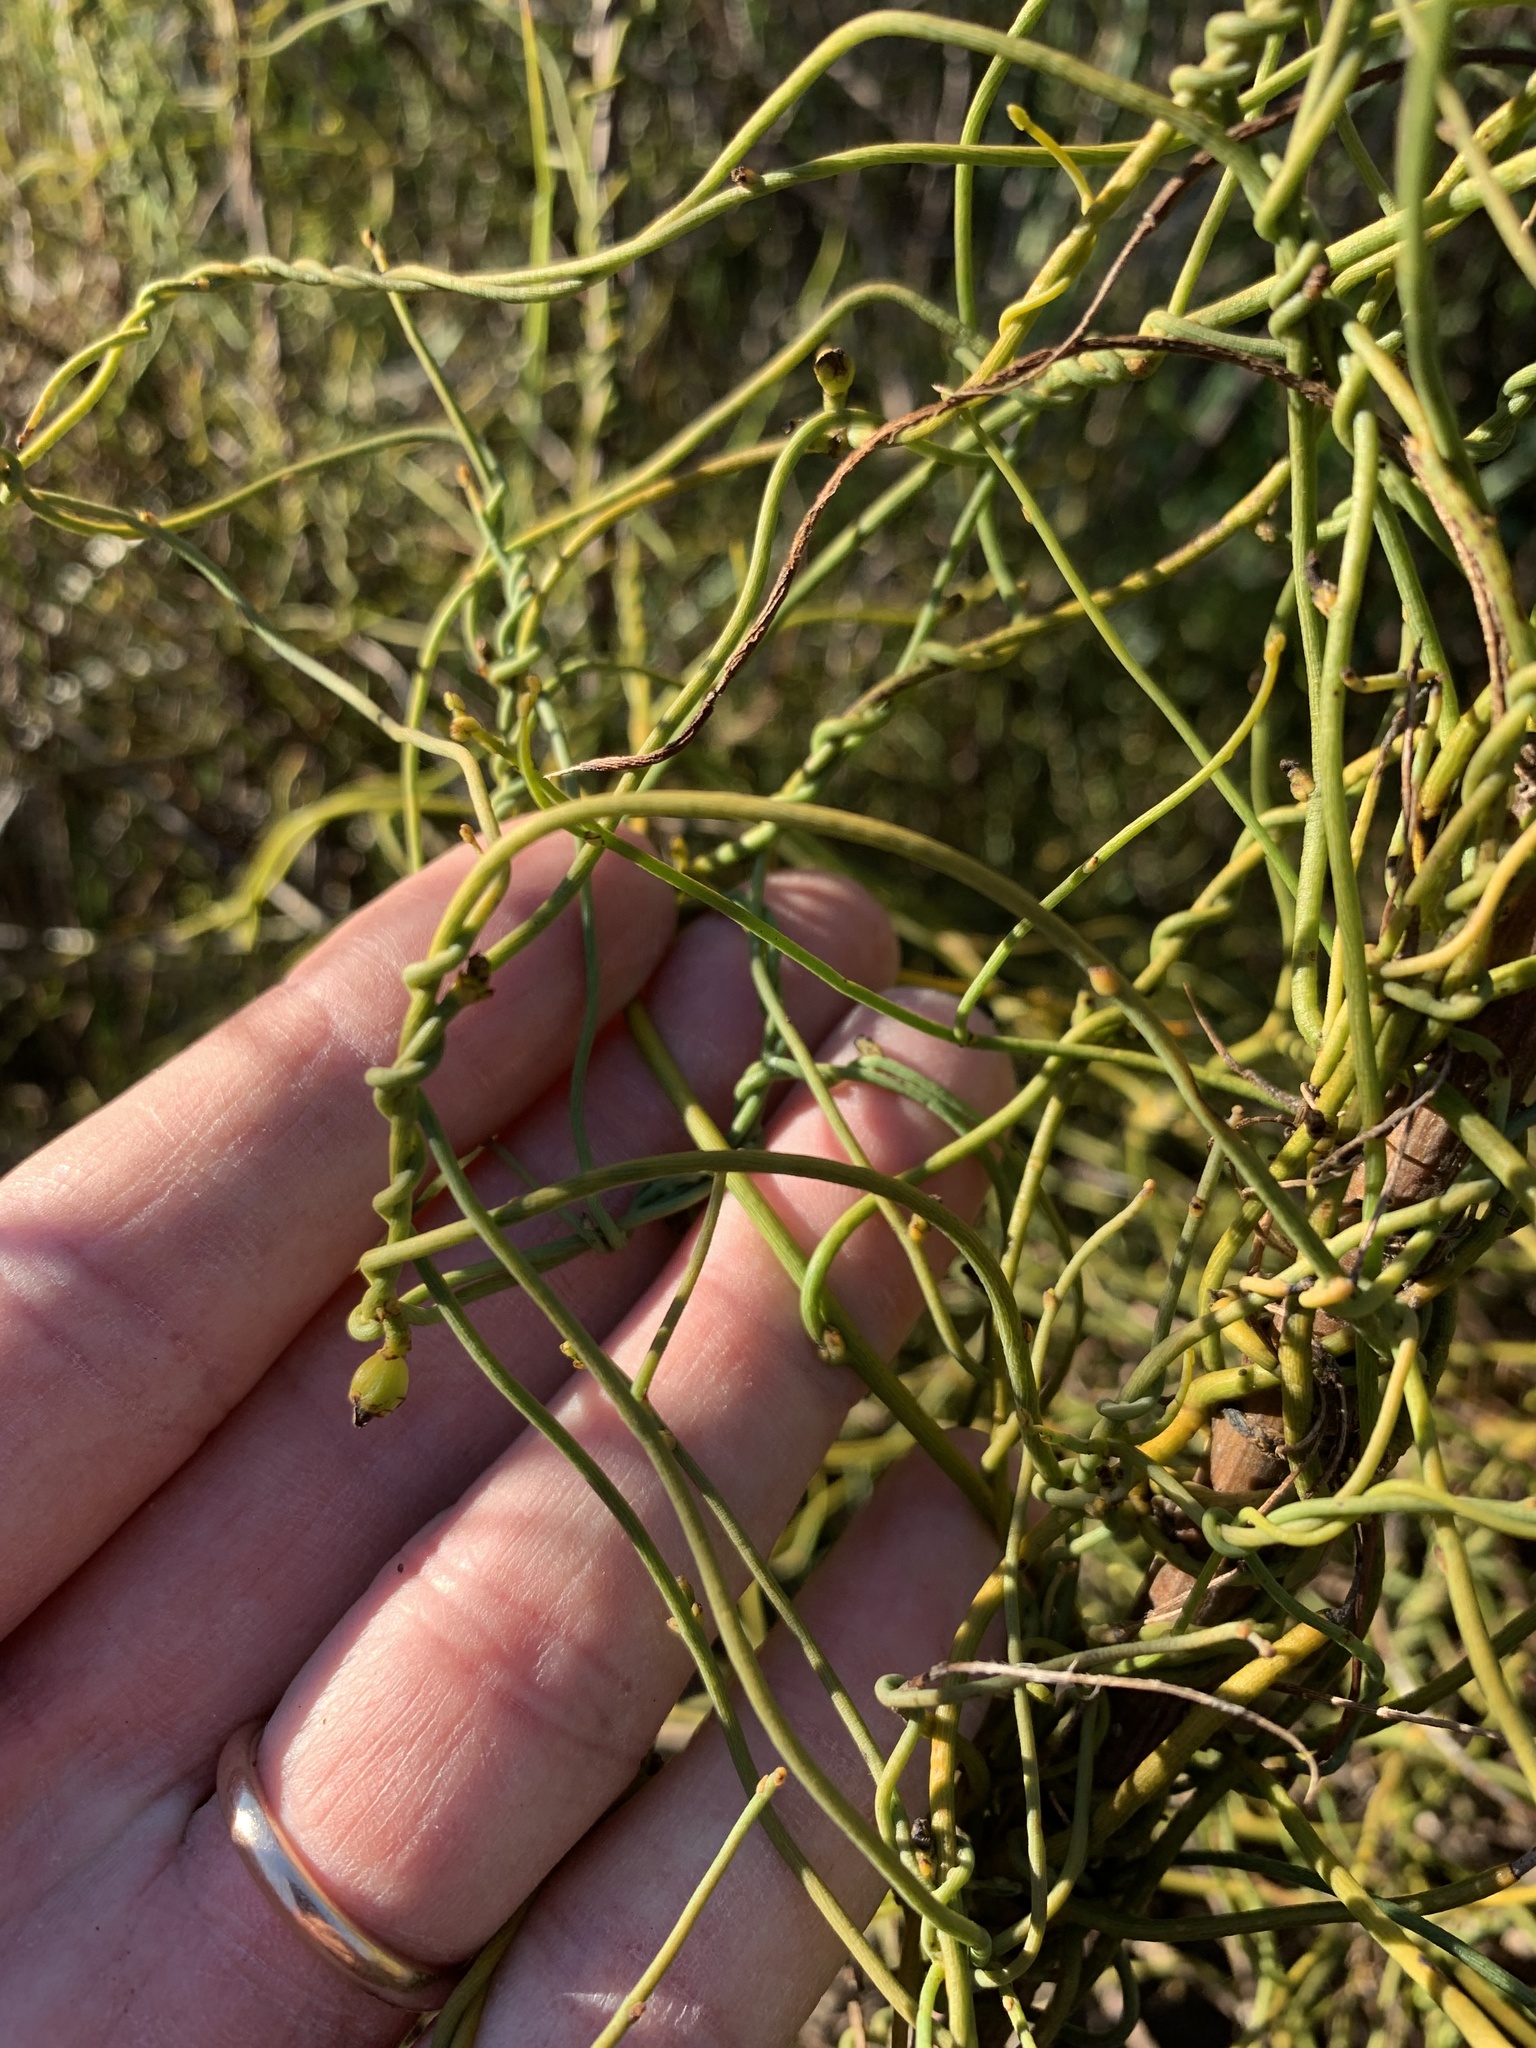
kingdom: Plantae
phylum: Tracheophyta
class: Magnoliopsida
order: Laurales
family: Lauraceae
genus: Cassytha
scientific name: Cassytha ciliolata
